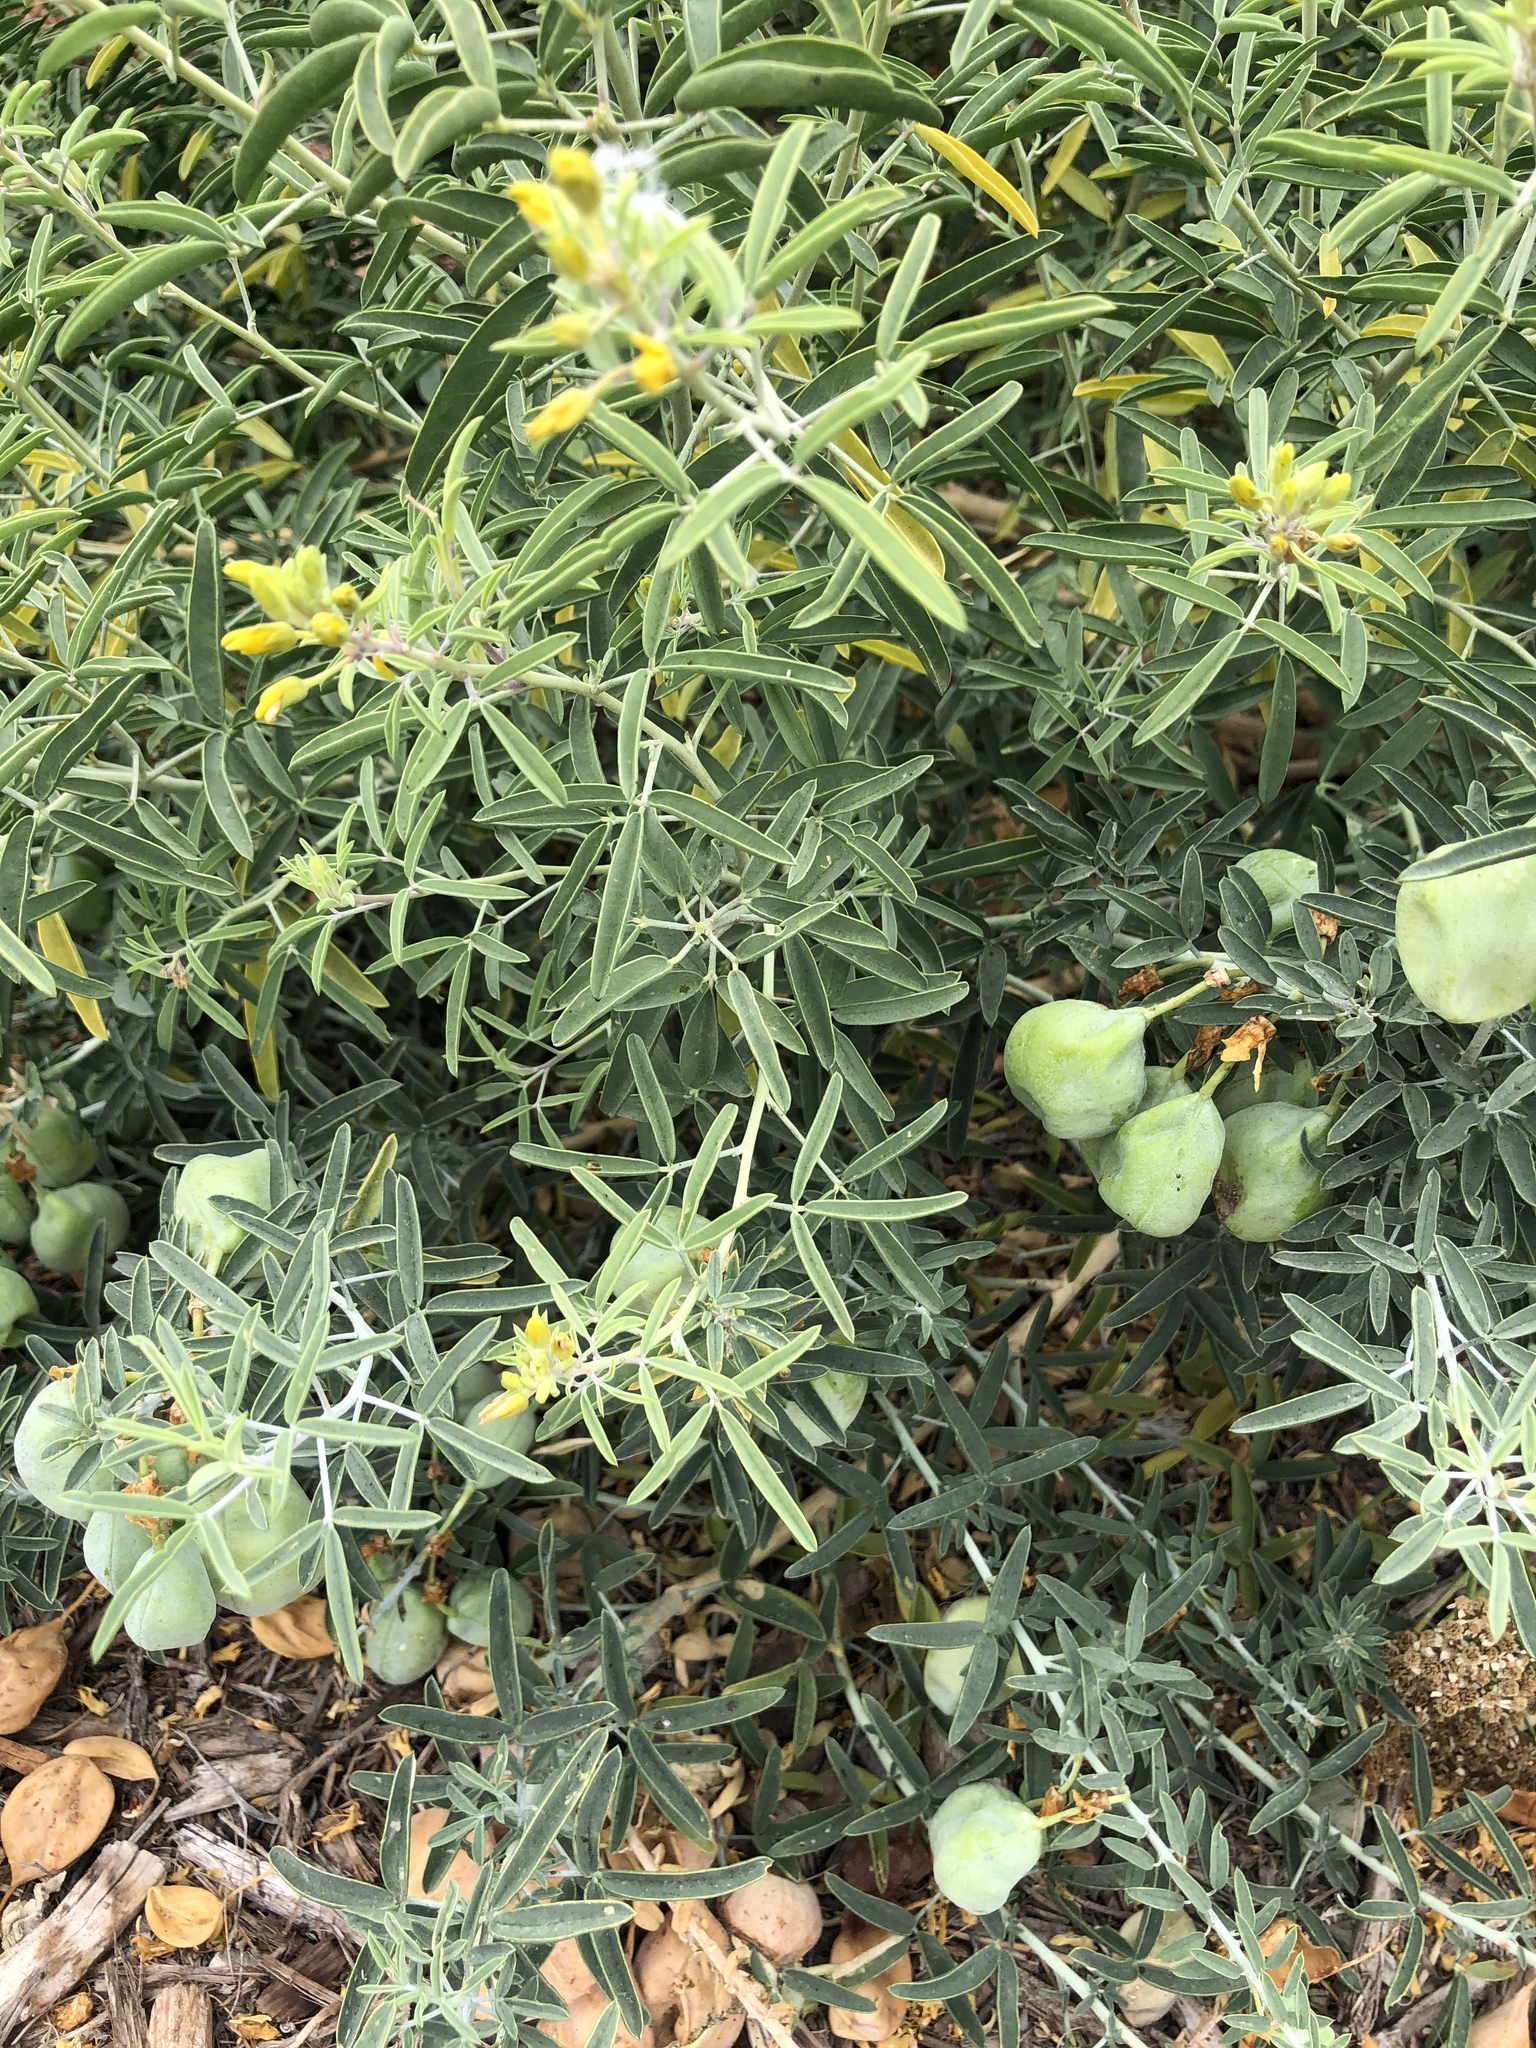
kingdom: Plantae
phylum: Tracheophyta
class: Magnoliopsida
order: Brassicales
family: Cleomaceae
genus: Cleomella
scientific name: Cleomella arborea
